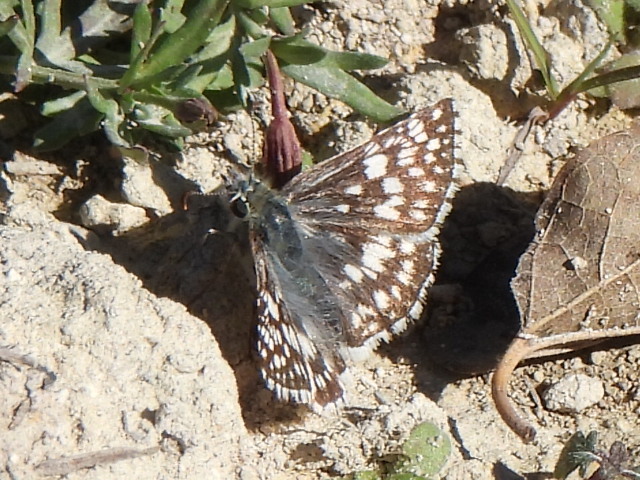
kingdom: Animalia
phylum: Arthropoda
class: Insecta
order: Lepidoptera
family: Hesperiidae
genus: Burnsius
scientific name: Burnsius
